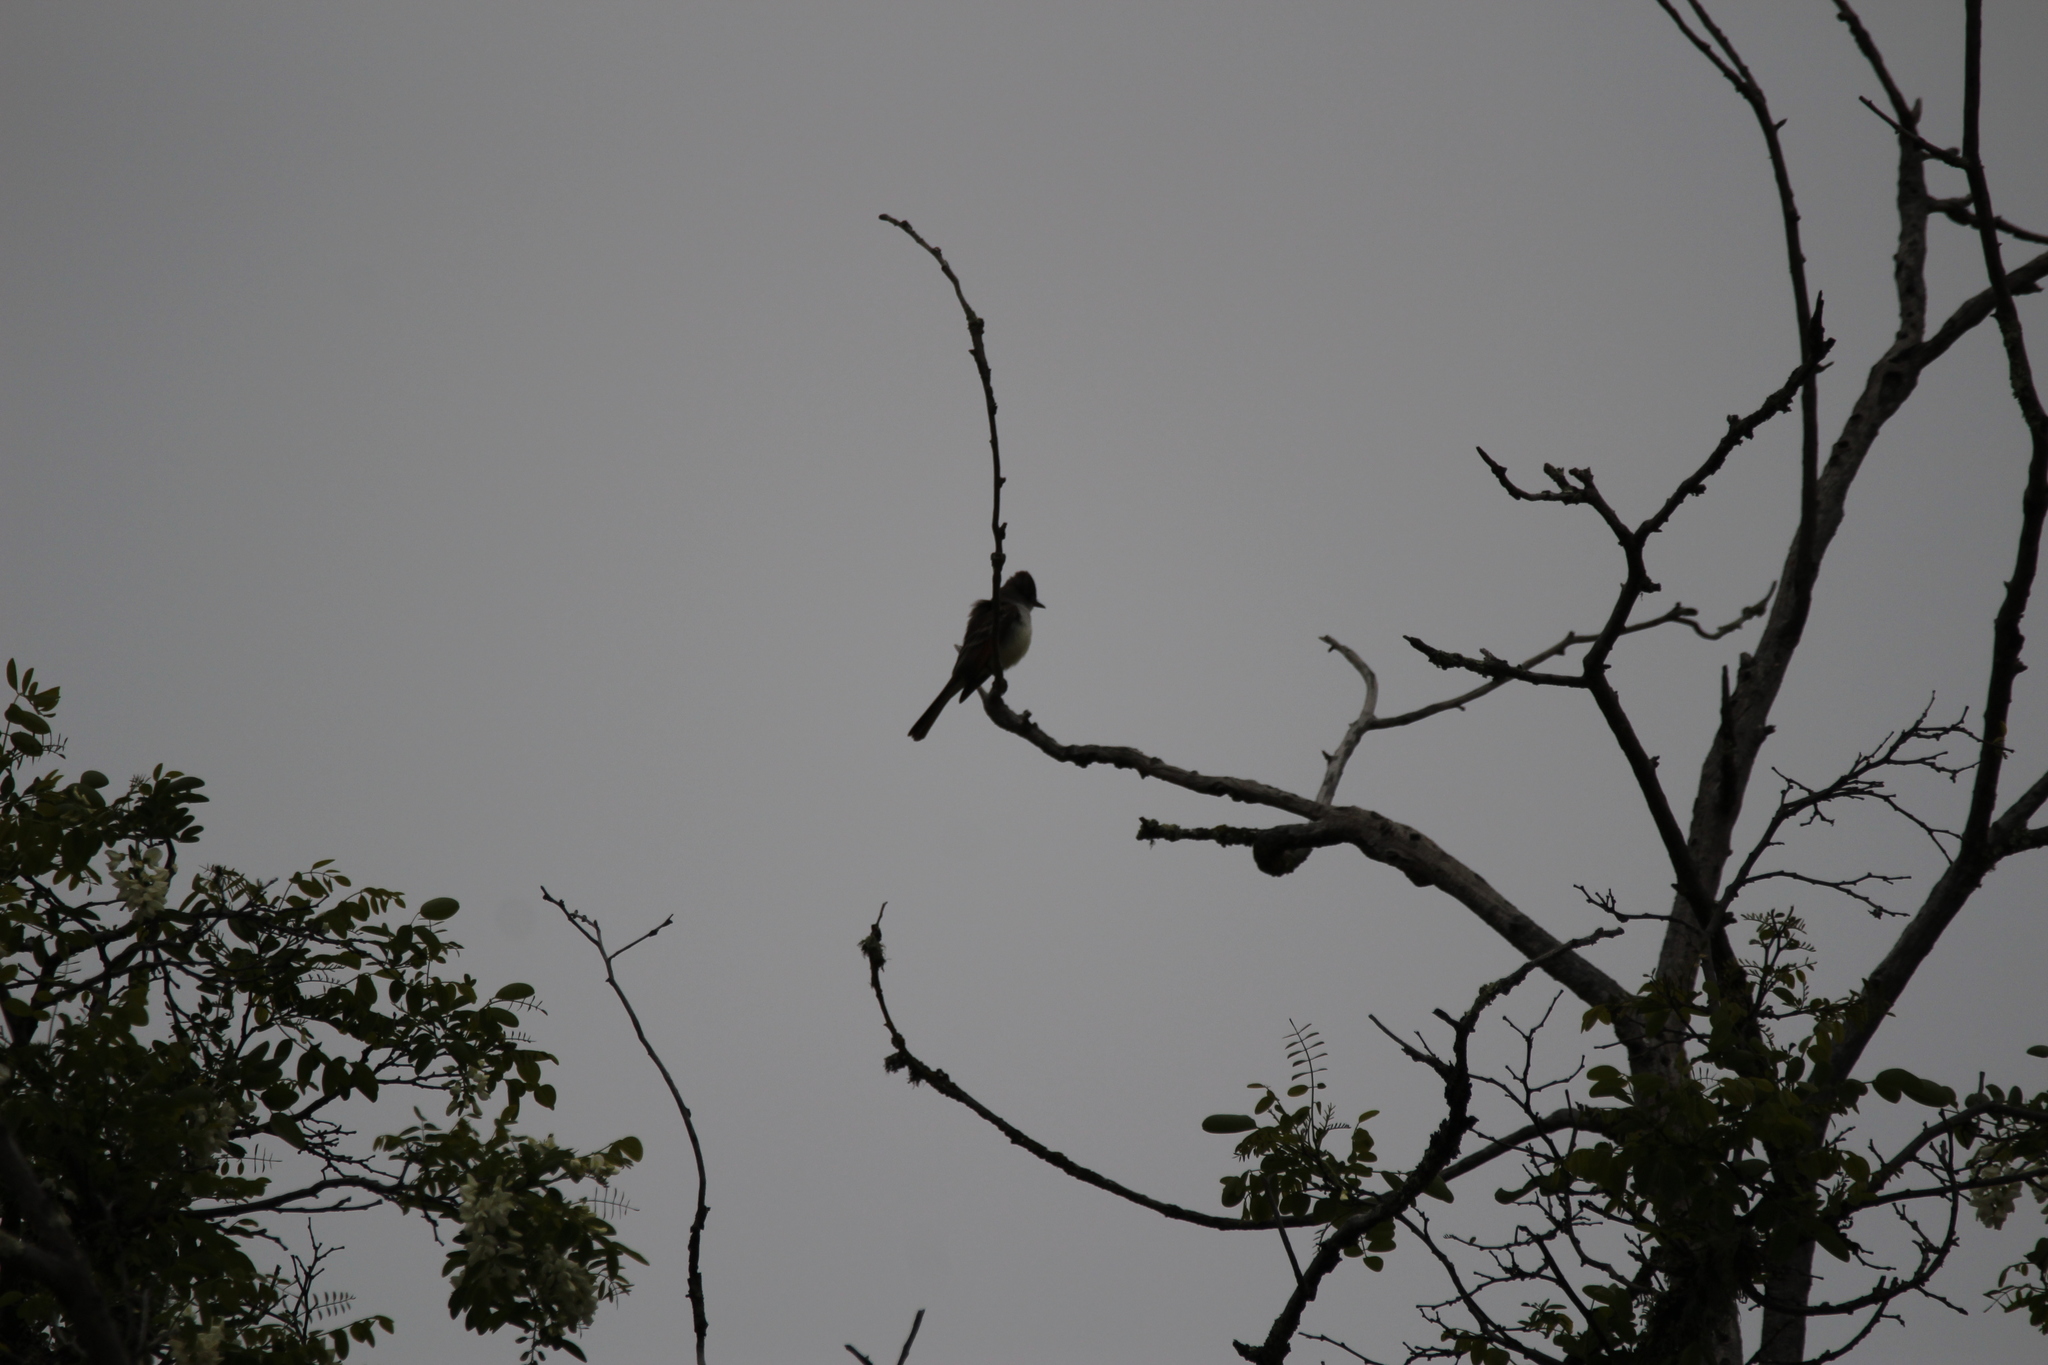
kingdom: Animalia
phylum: Chordata
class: Aves
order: Passeriformes
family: Tyrannidae
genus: Myiarchus
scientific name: Myiarchus cinerascens
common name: Ash-throated flycatcher
